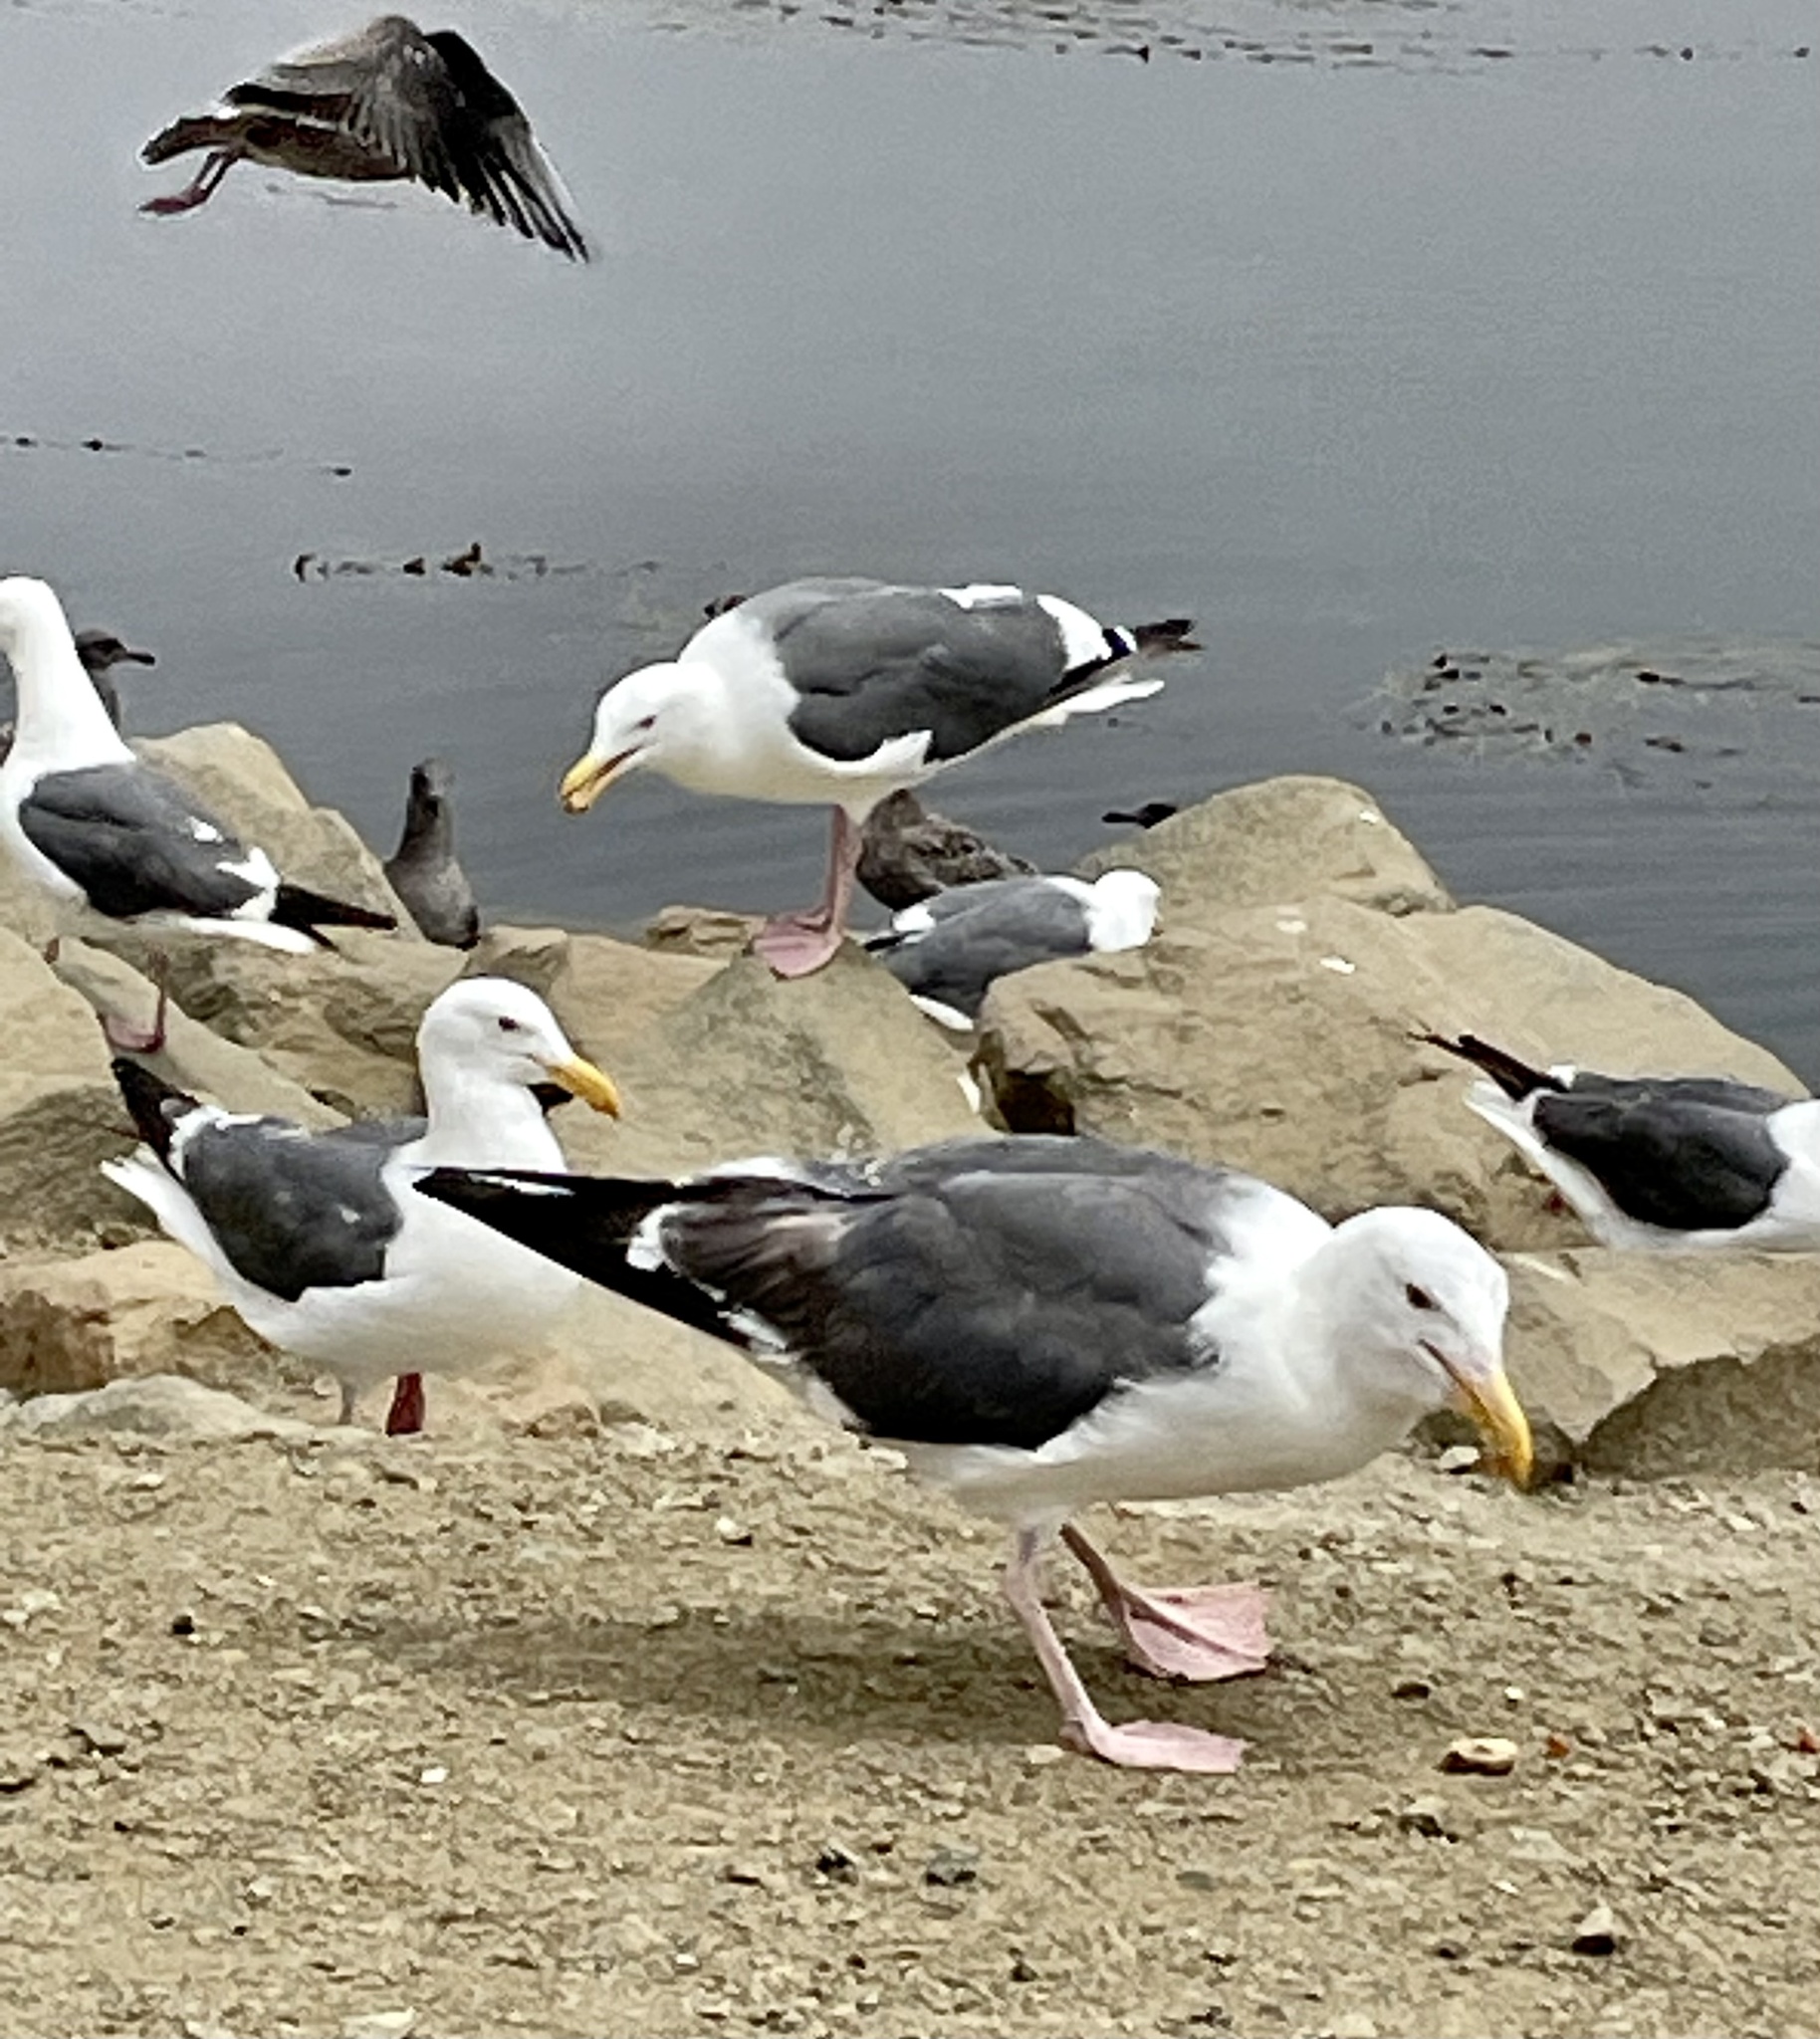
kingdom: Animalia
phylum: Chordata
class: Aves
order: Charadriiformes
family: Laridae
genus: Larus
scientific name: Larus occidentalis
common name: Western gull
